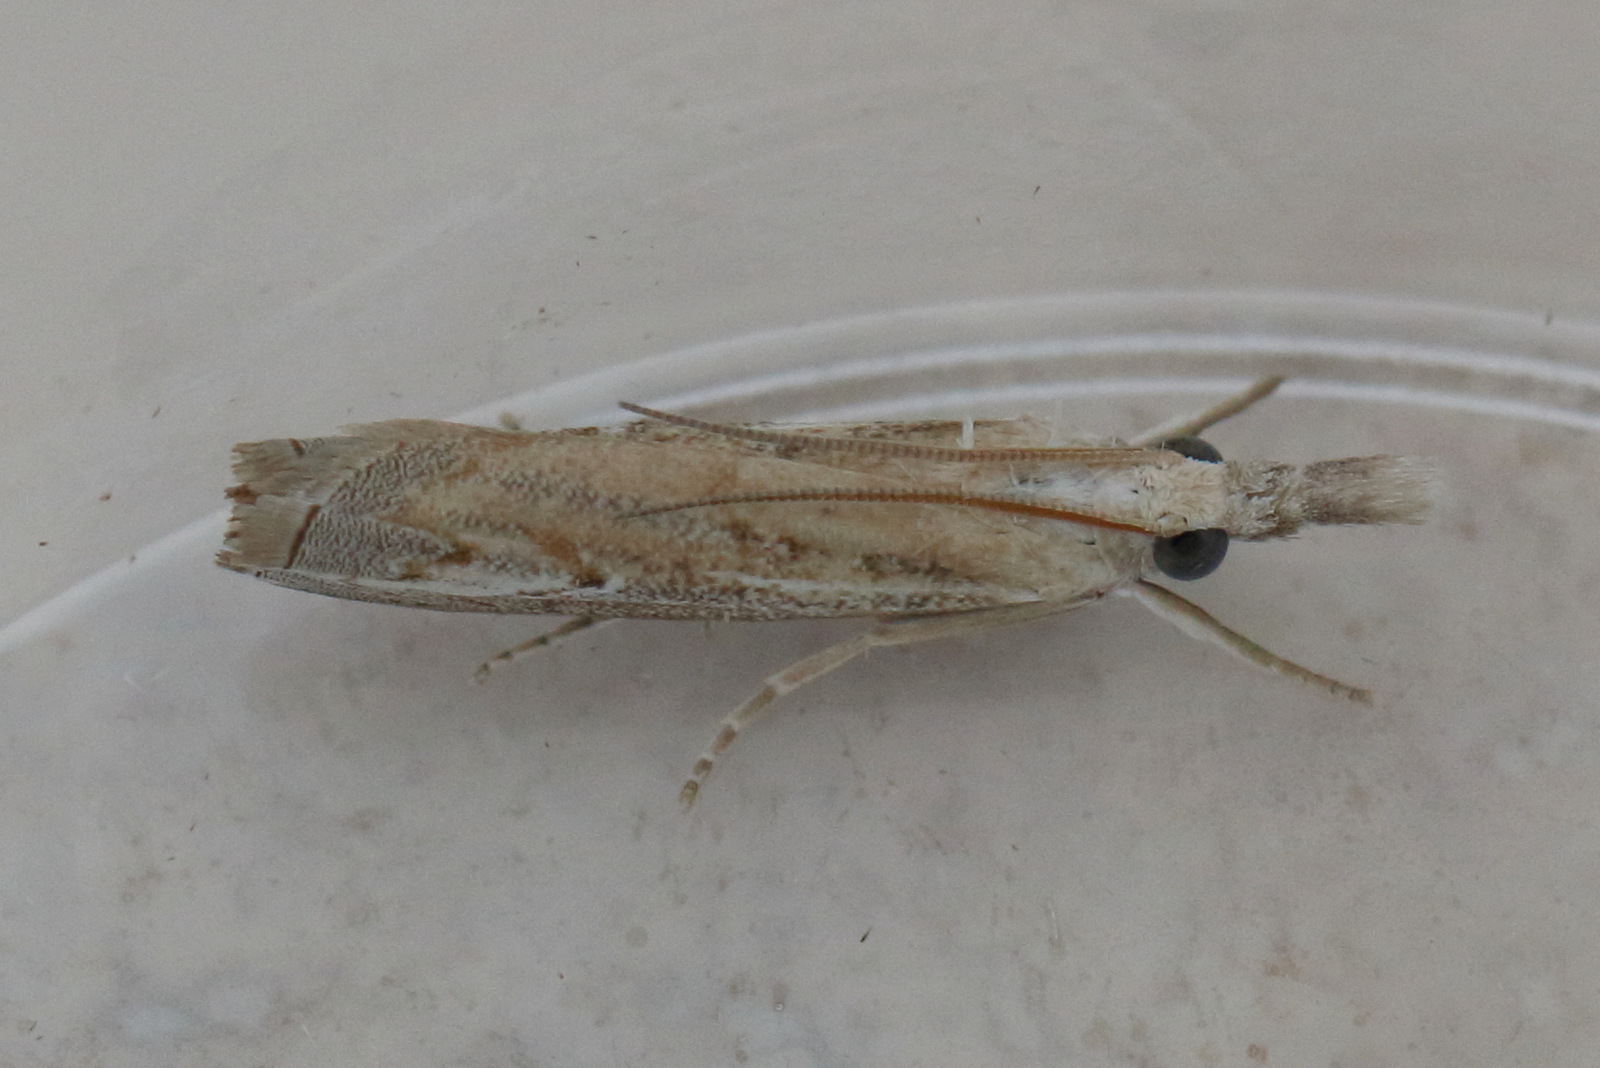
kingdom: Animalia
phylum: Arthropoda
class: Insecta
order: Lepidoptera
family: Crambidae
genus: Culladia
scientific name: Culladia cuneiferellus
